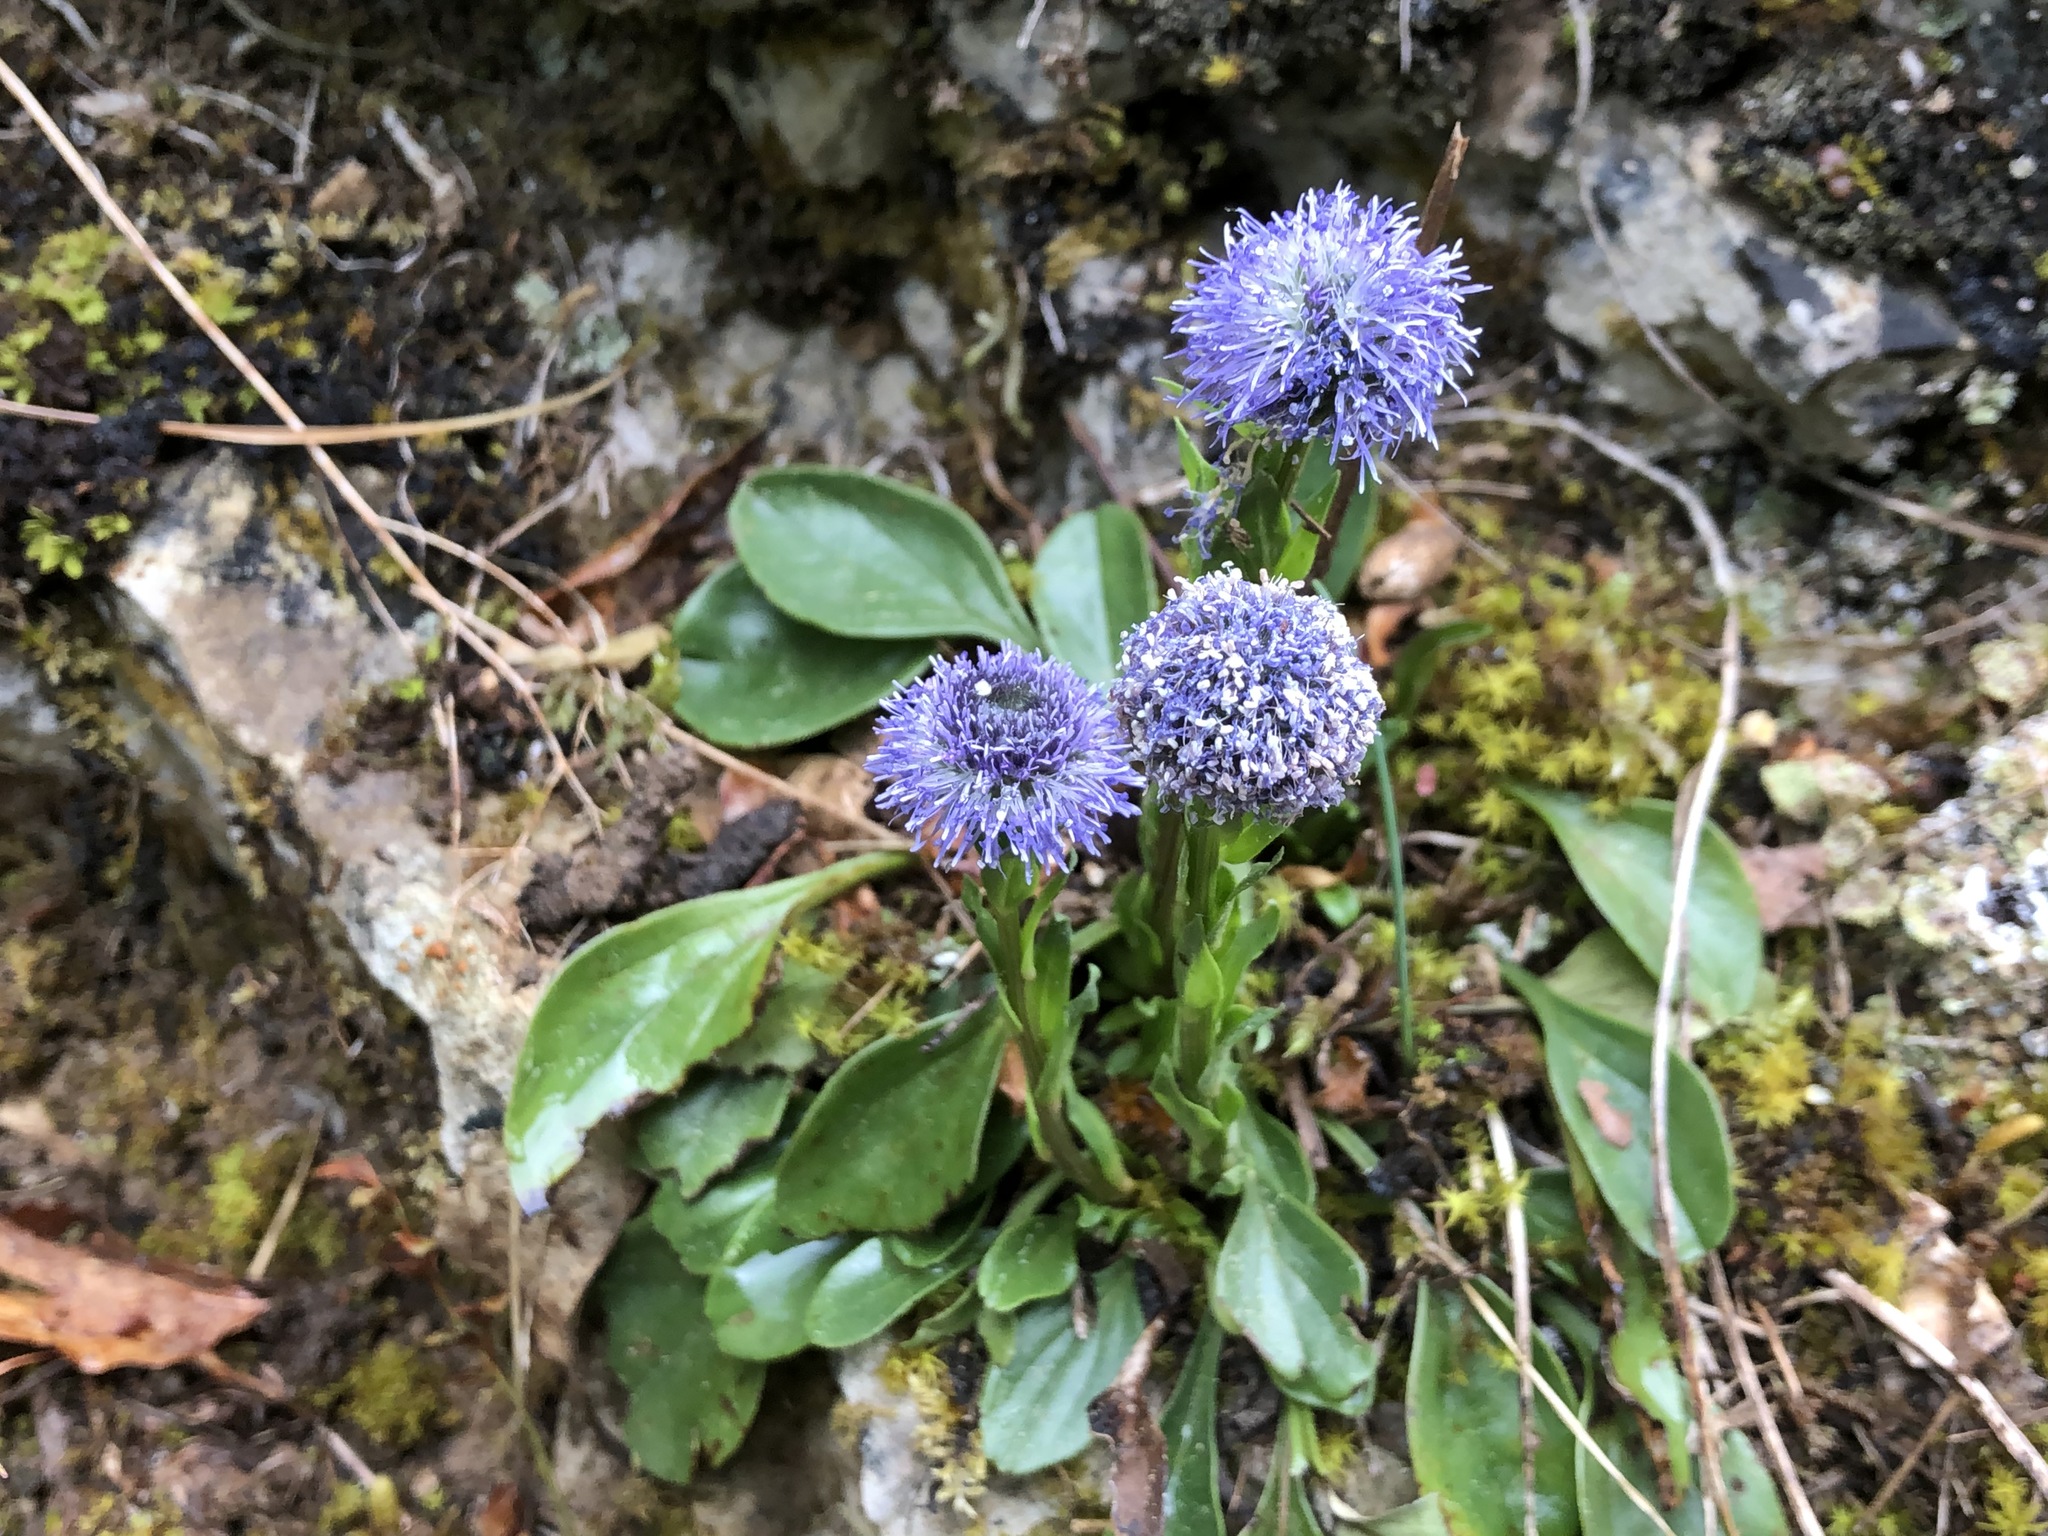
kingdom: Plantae
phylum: Tracheophyta
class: Magnoliopsida
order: Lamiales
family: Plantaginaceae
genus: Globularia
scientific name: Globularia bisnagarica
